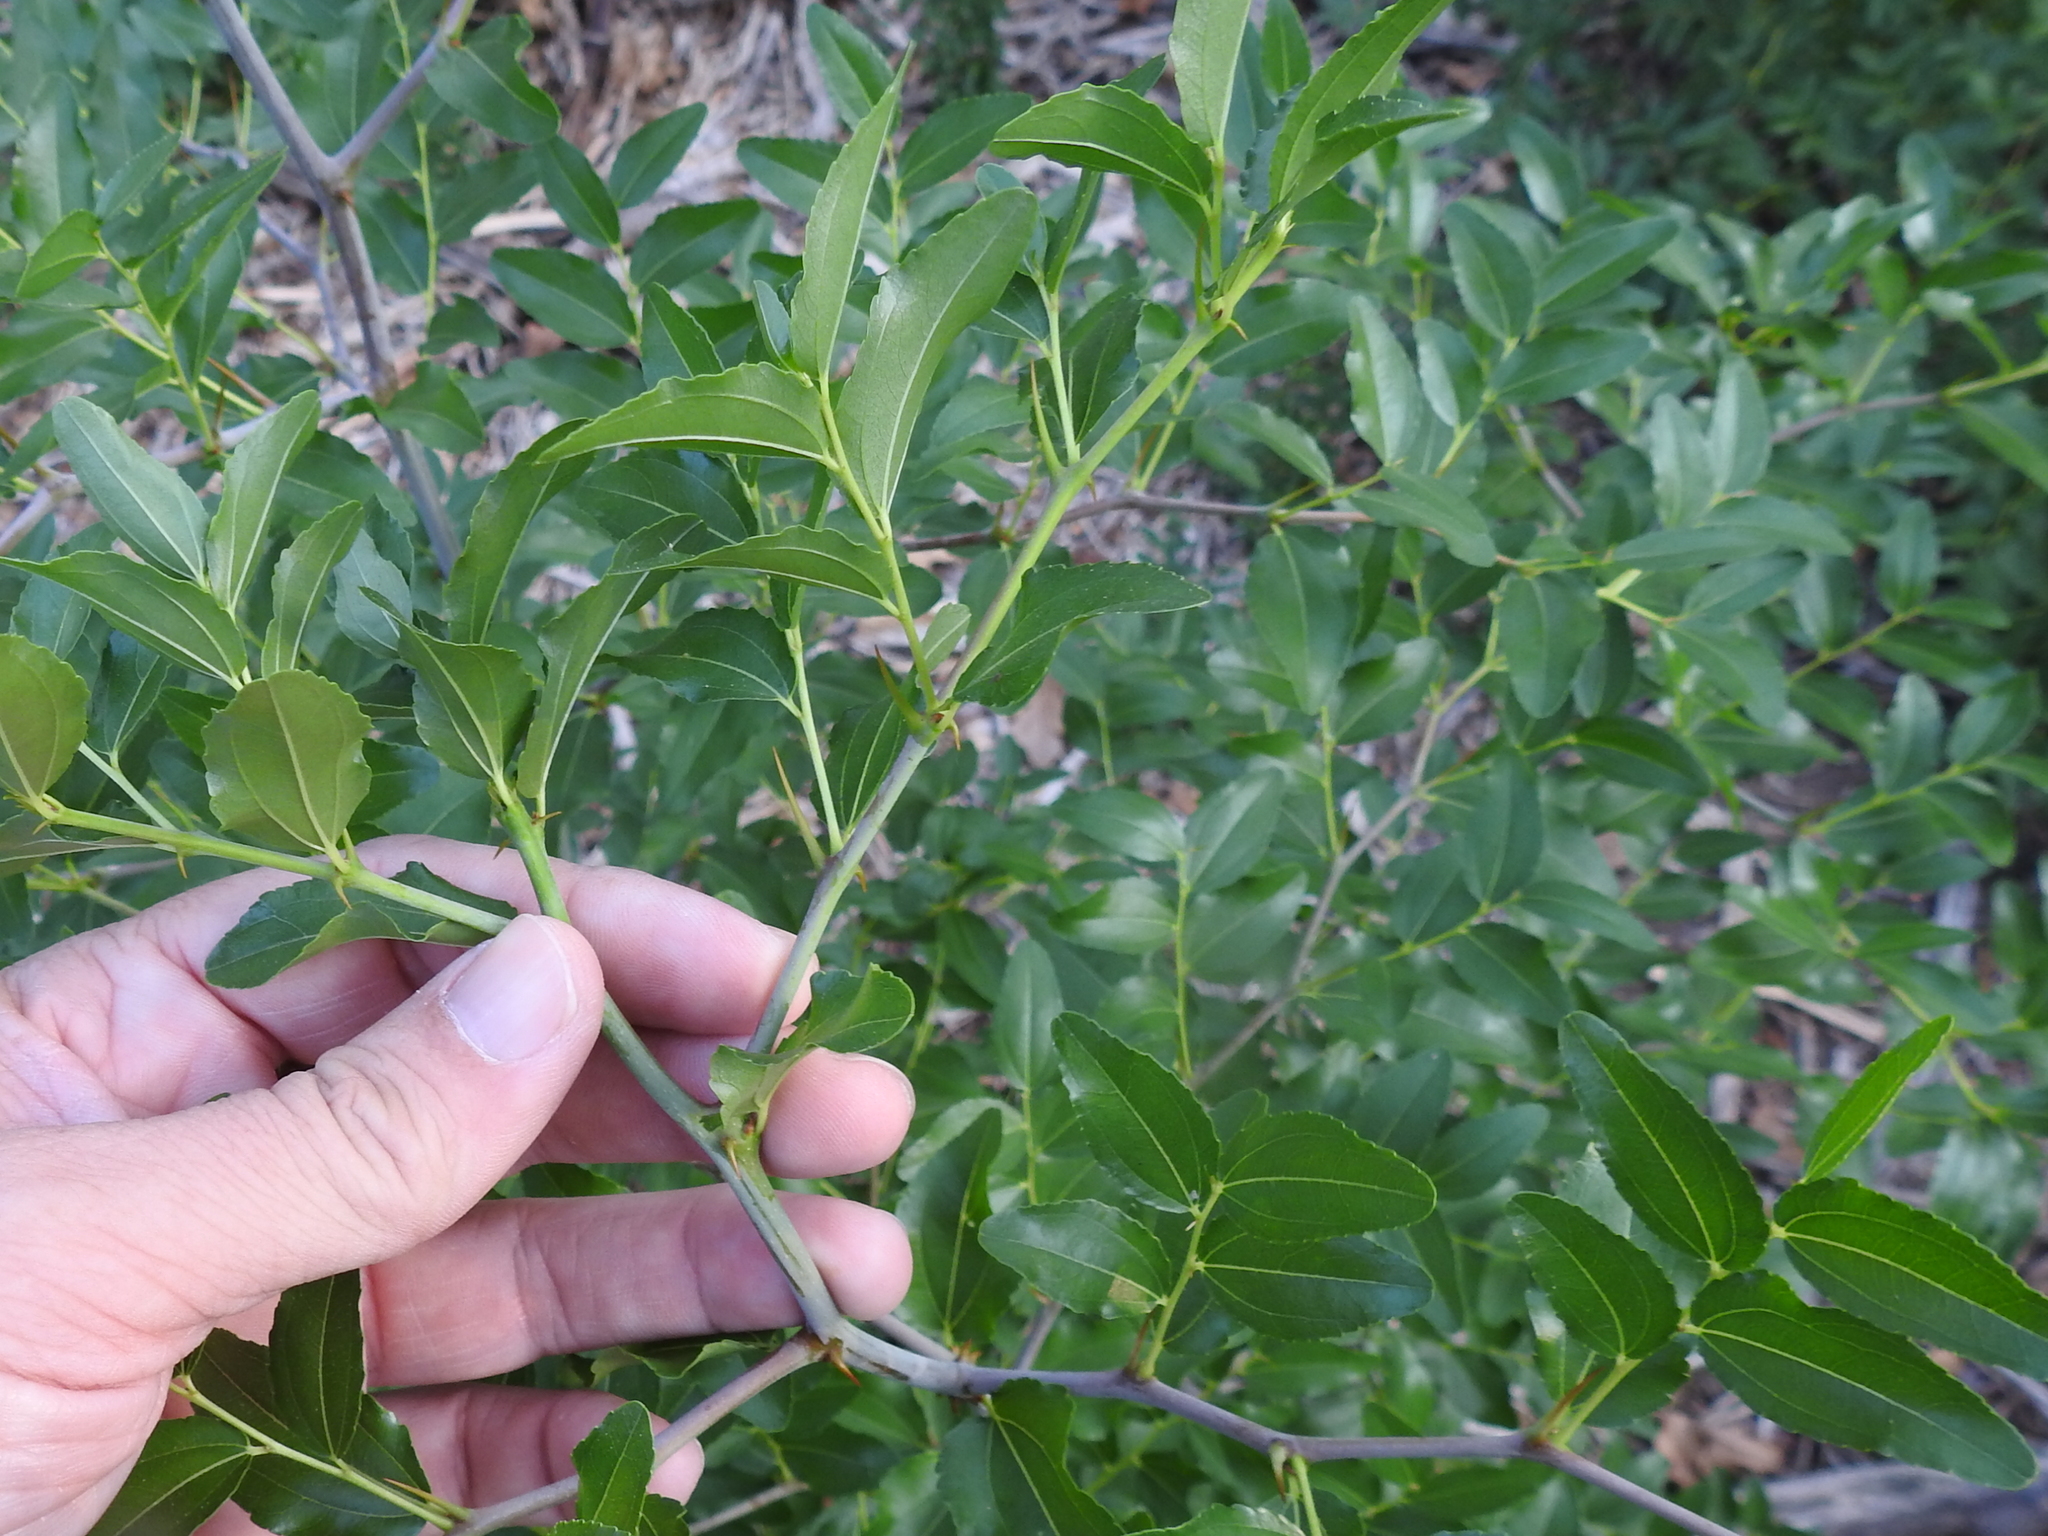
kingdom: Plantae
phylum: Tracheophyta
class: Magnoliopsida
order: Rosales
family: Rhamnaceae
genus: Ziziphus
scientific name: Ziziphus jujuba
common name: Jujube red date
